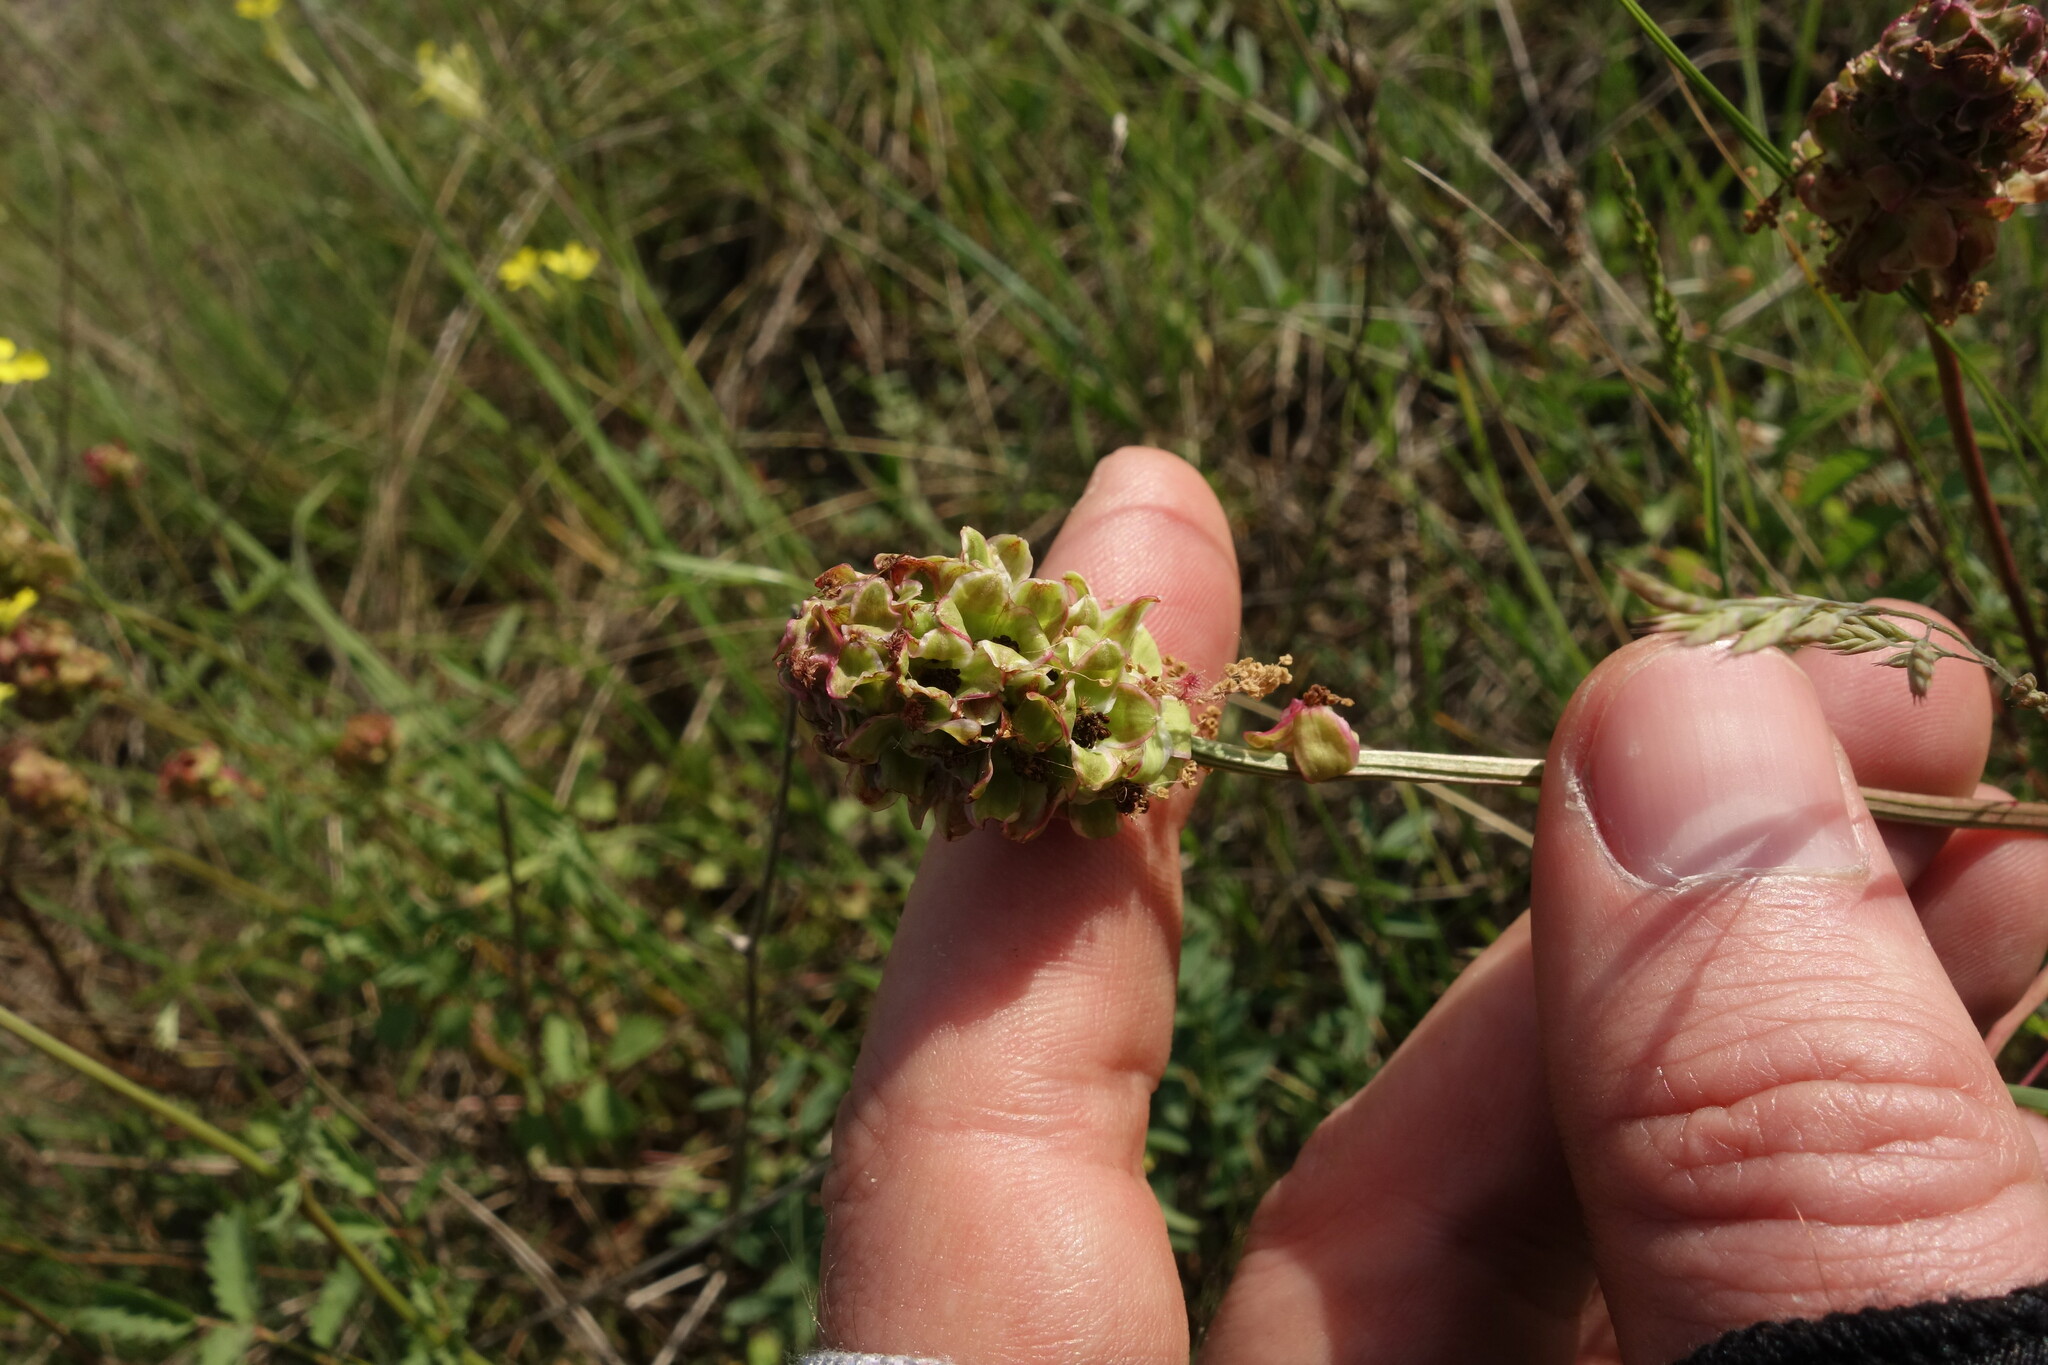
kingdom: Plantae
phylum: Tracheophyta
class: Magnoliopsida
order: Rosales
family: Rosaceae
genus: Poterium
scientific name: Poterium sanguisorba
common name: Salad burnet
